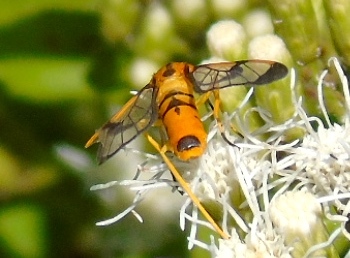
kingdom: Animalia
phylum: Arthropoda
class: Insecta
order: Lepidoptera
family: Erebidae
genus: Pseudosphex
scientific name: Pseudosphex leovazquezae
